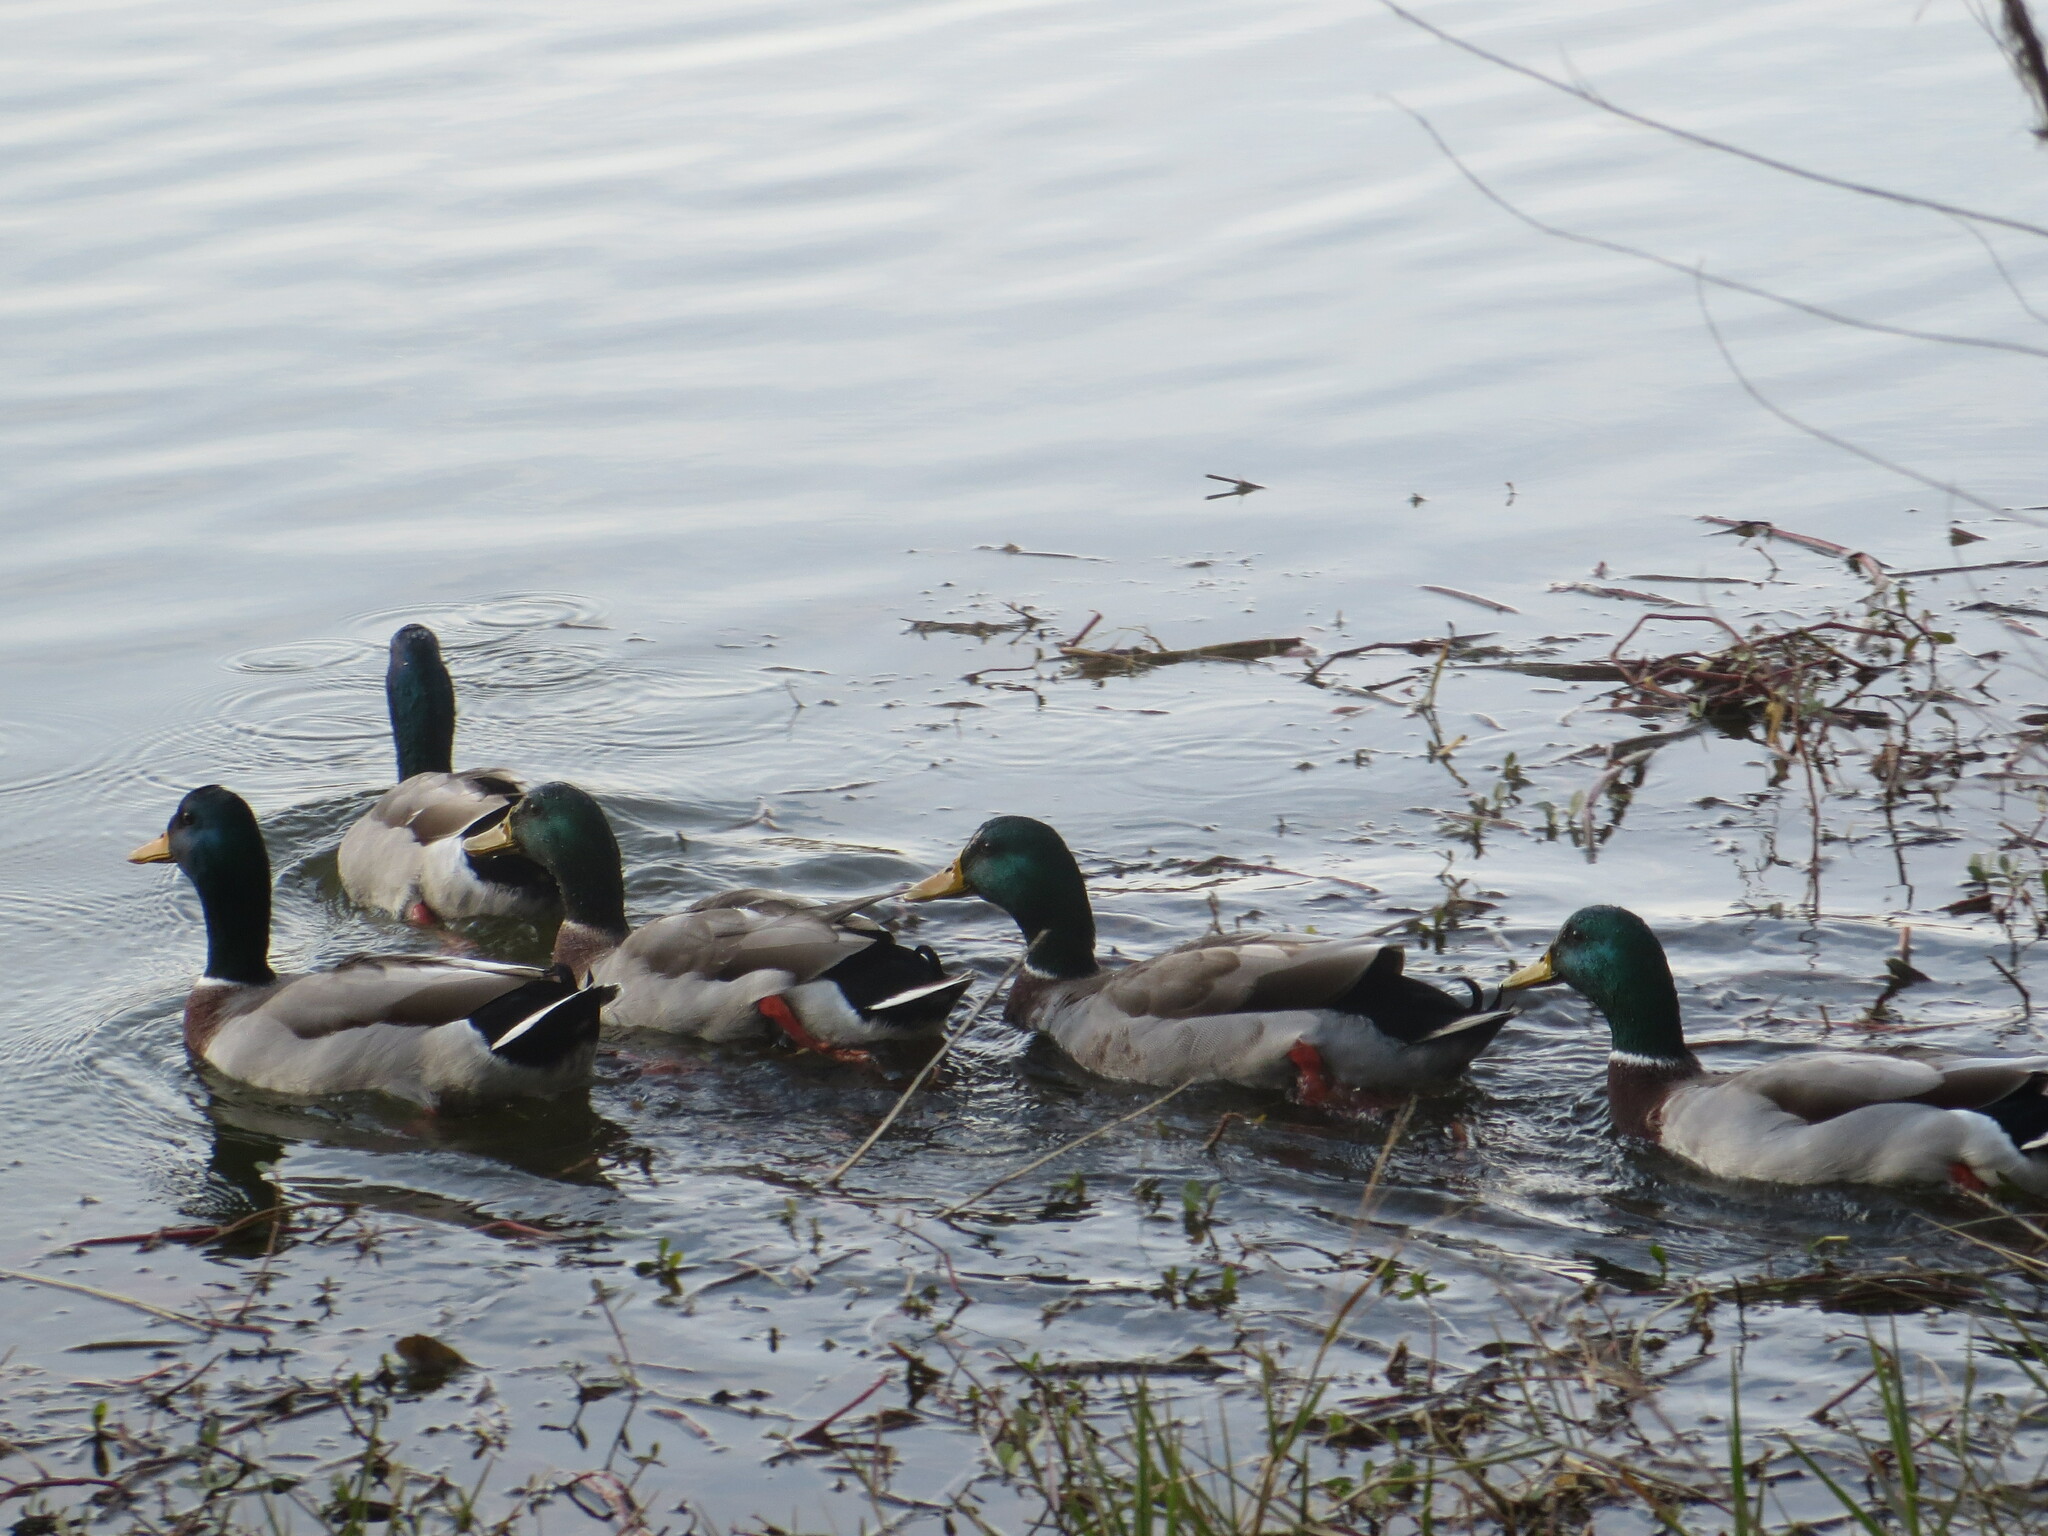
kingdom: Animalia
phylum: Chordata
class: Aves
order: Anseriformes
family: Anatidae
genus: Anas
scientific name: Anas platyrhynchos
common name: Mallard
